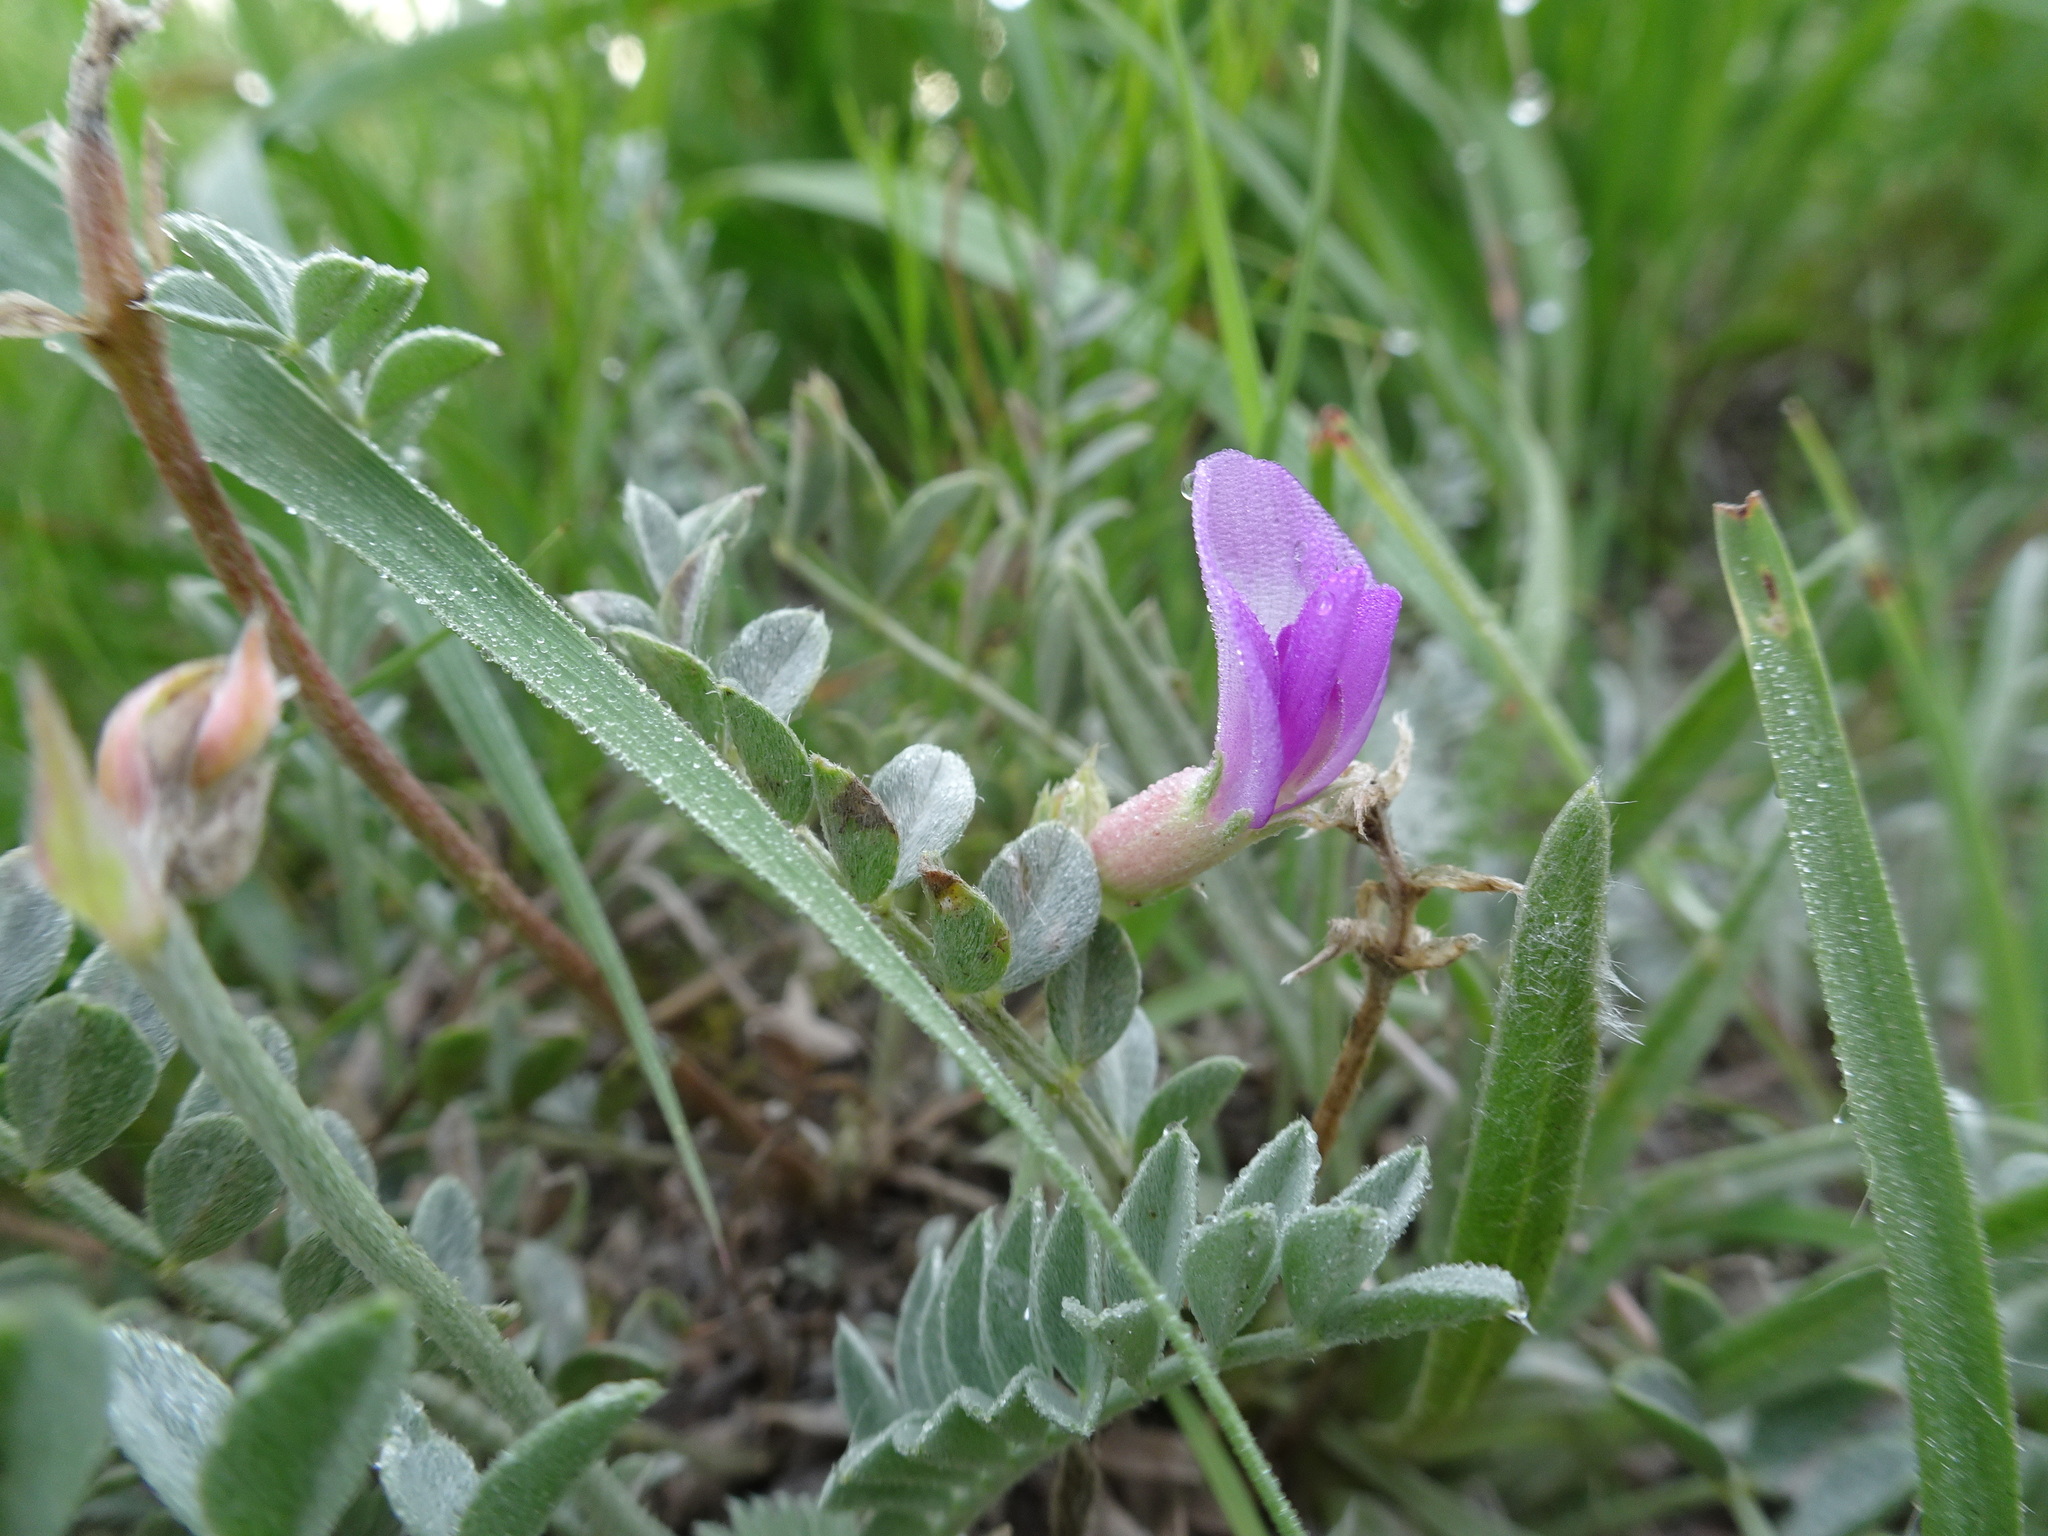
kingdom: Plantae
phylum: Tracheophyta
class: Magnoliopsida
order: Fabales
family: Fabaceae
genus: Astragalus
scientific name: Astragalus missouriensis
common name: Missouri milk-vetch
